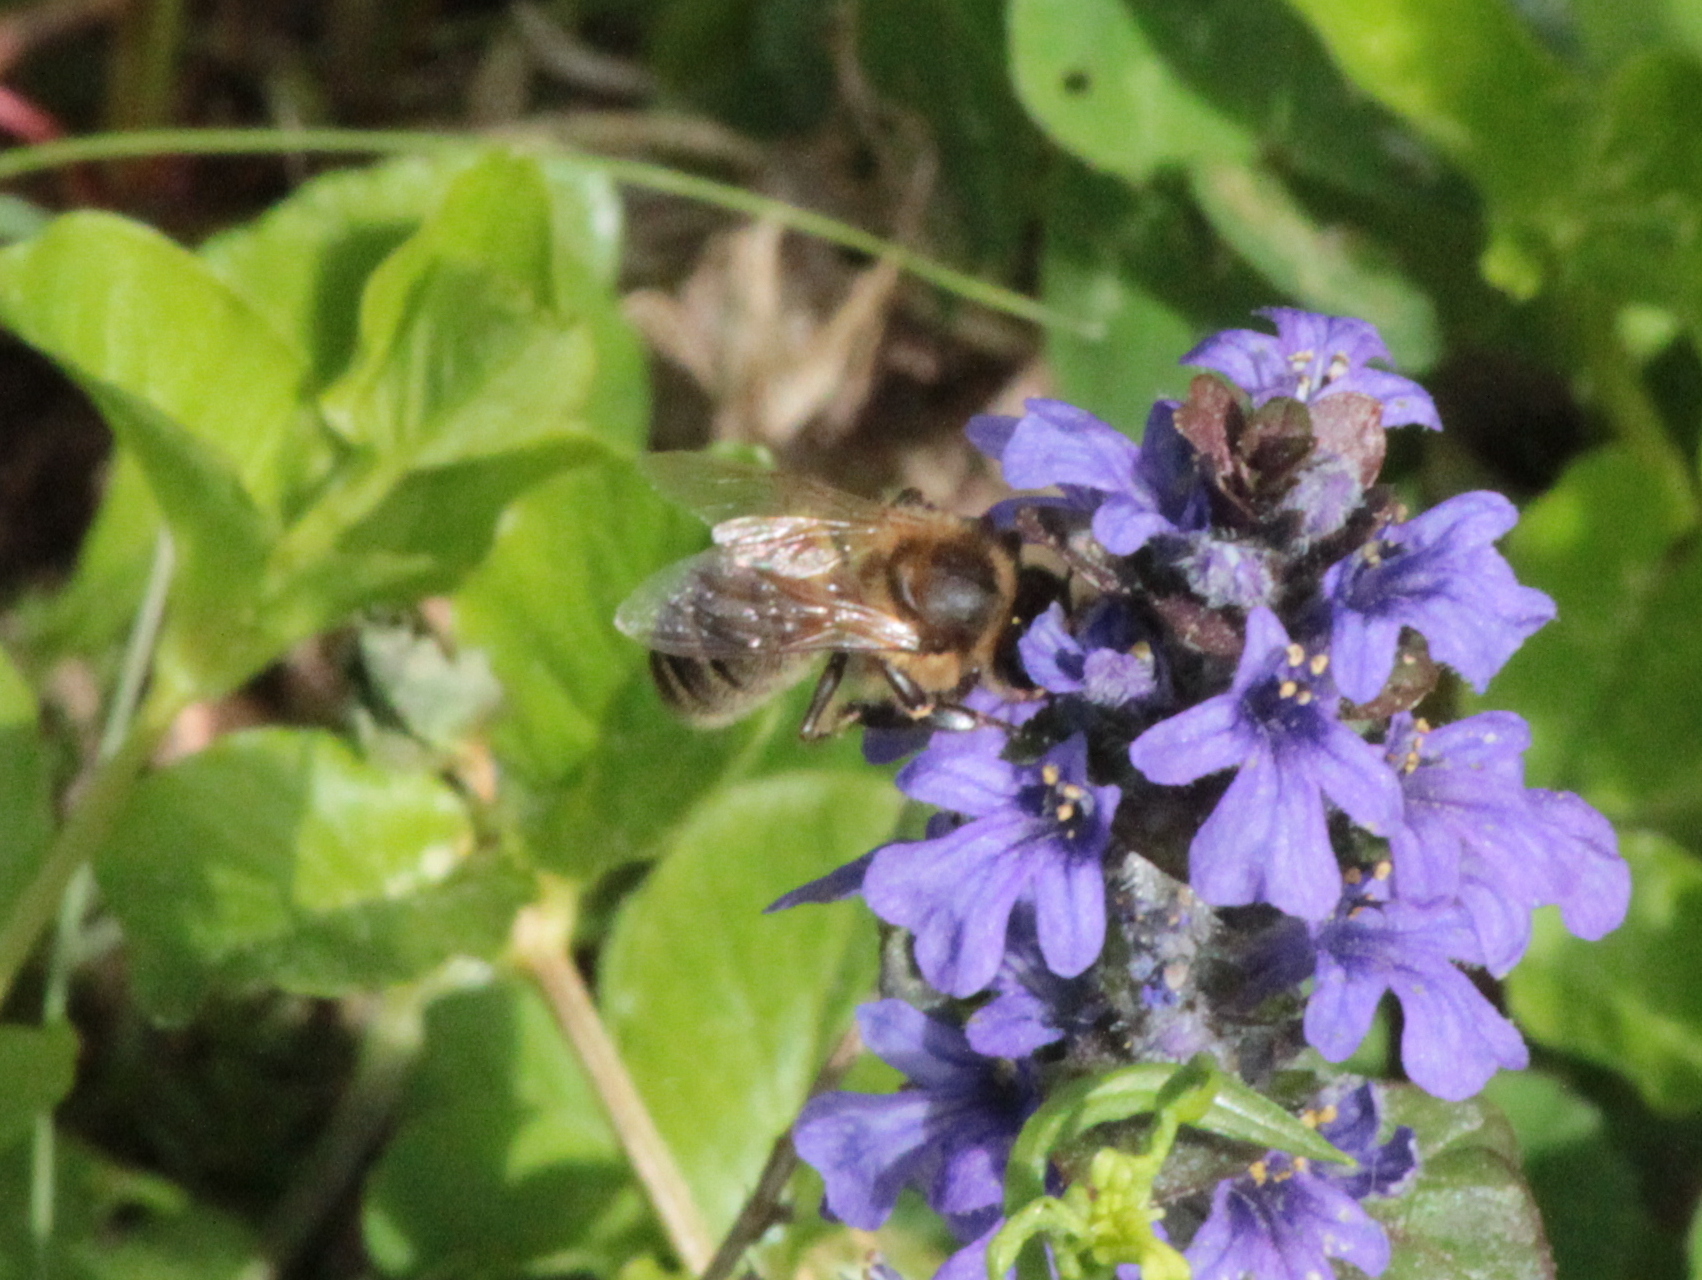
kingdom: Animalia
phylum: Arthropoda
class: Insecta
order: Hymenoptera
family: Apidae
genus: Apis
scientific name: Apis mellifera
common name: Honey bee
